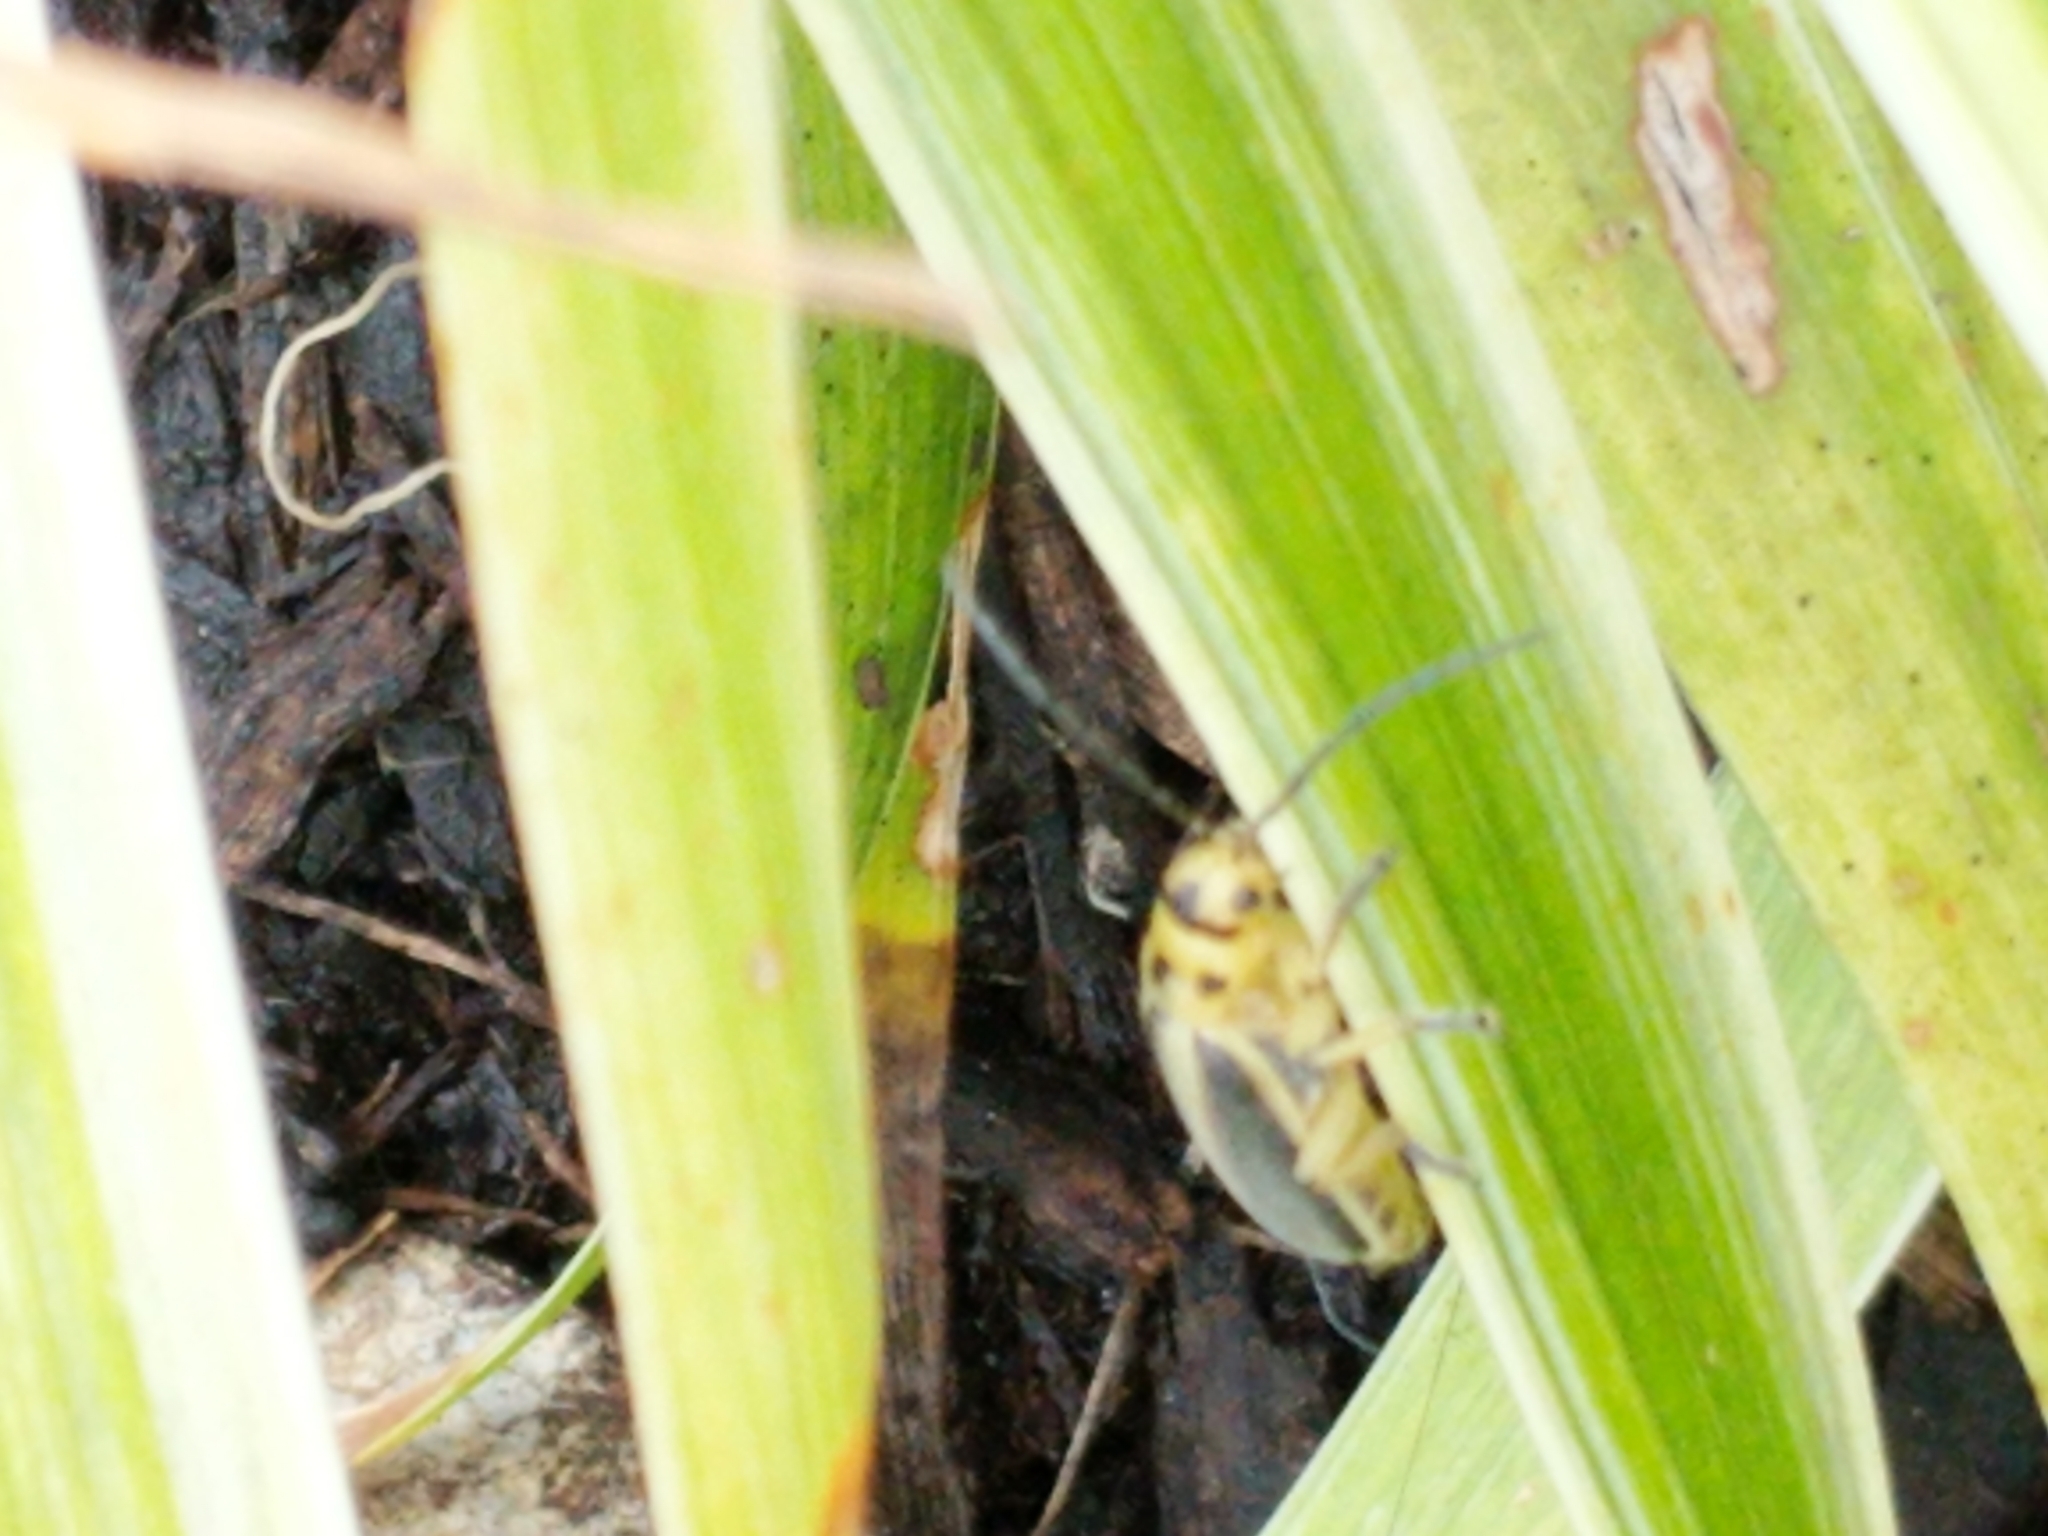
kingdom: Animalia
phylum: Arthropoda
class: Insecta
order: Coleoptera
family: Chrysomelidae
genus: Trirhabda
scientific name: Trirhabda bacharidis
